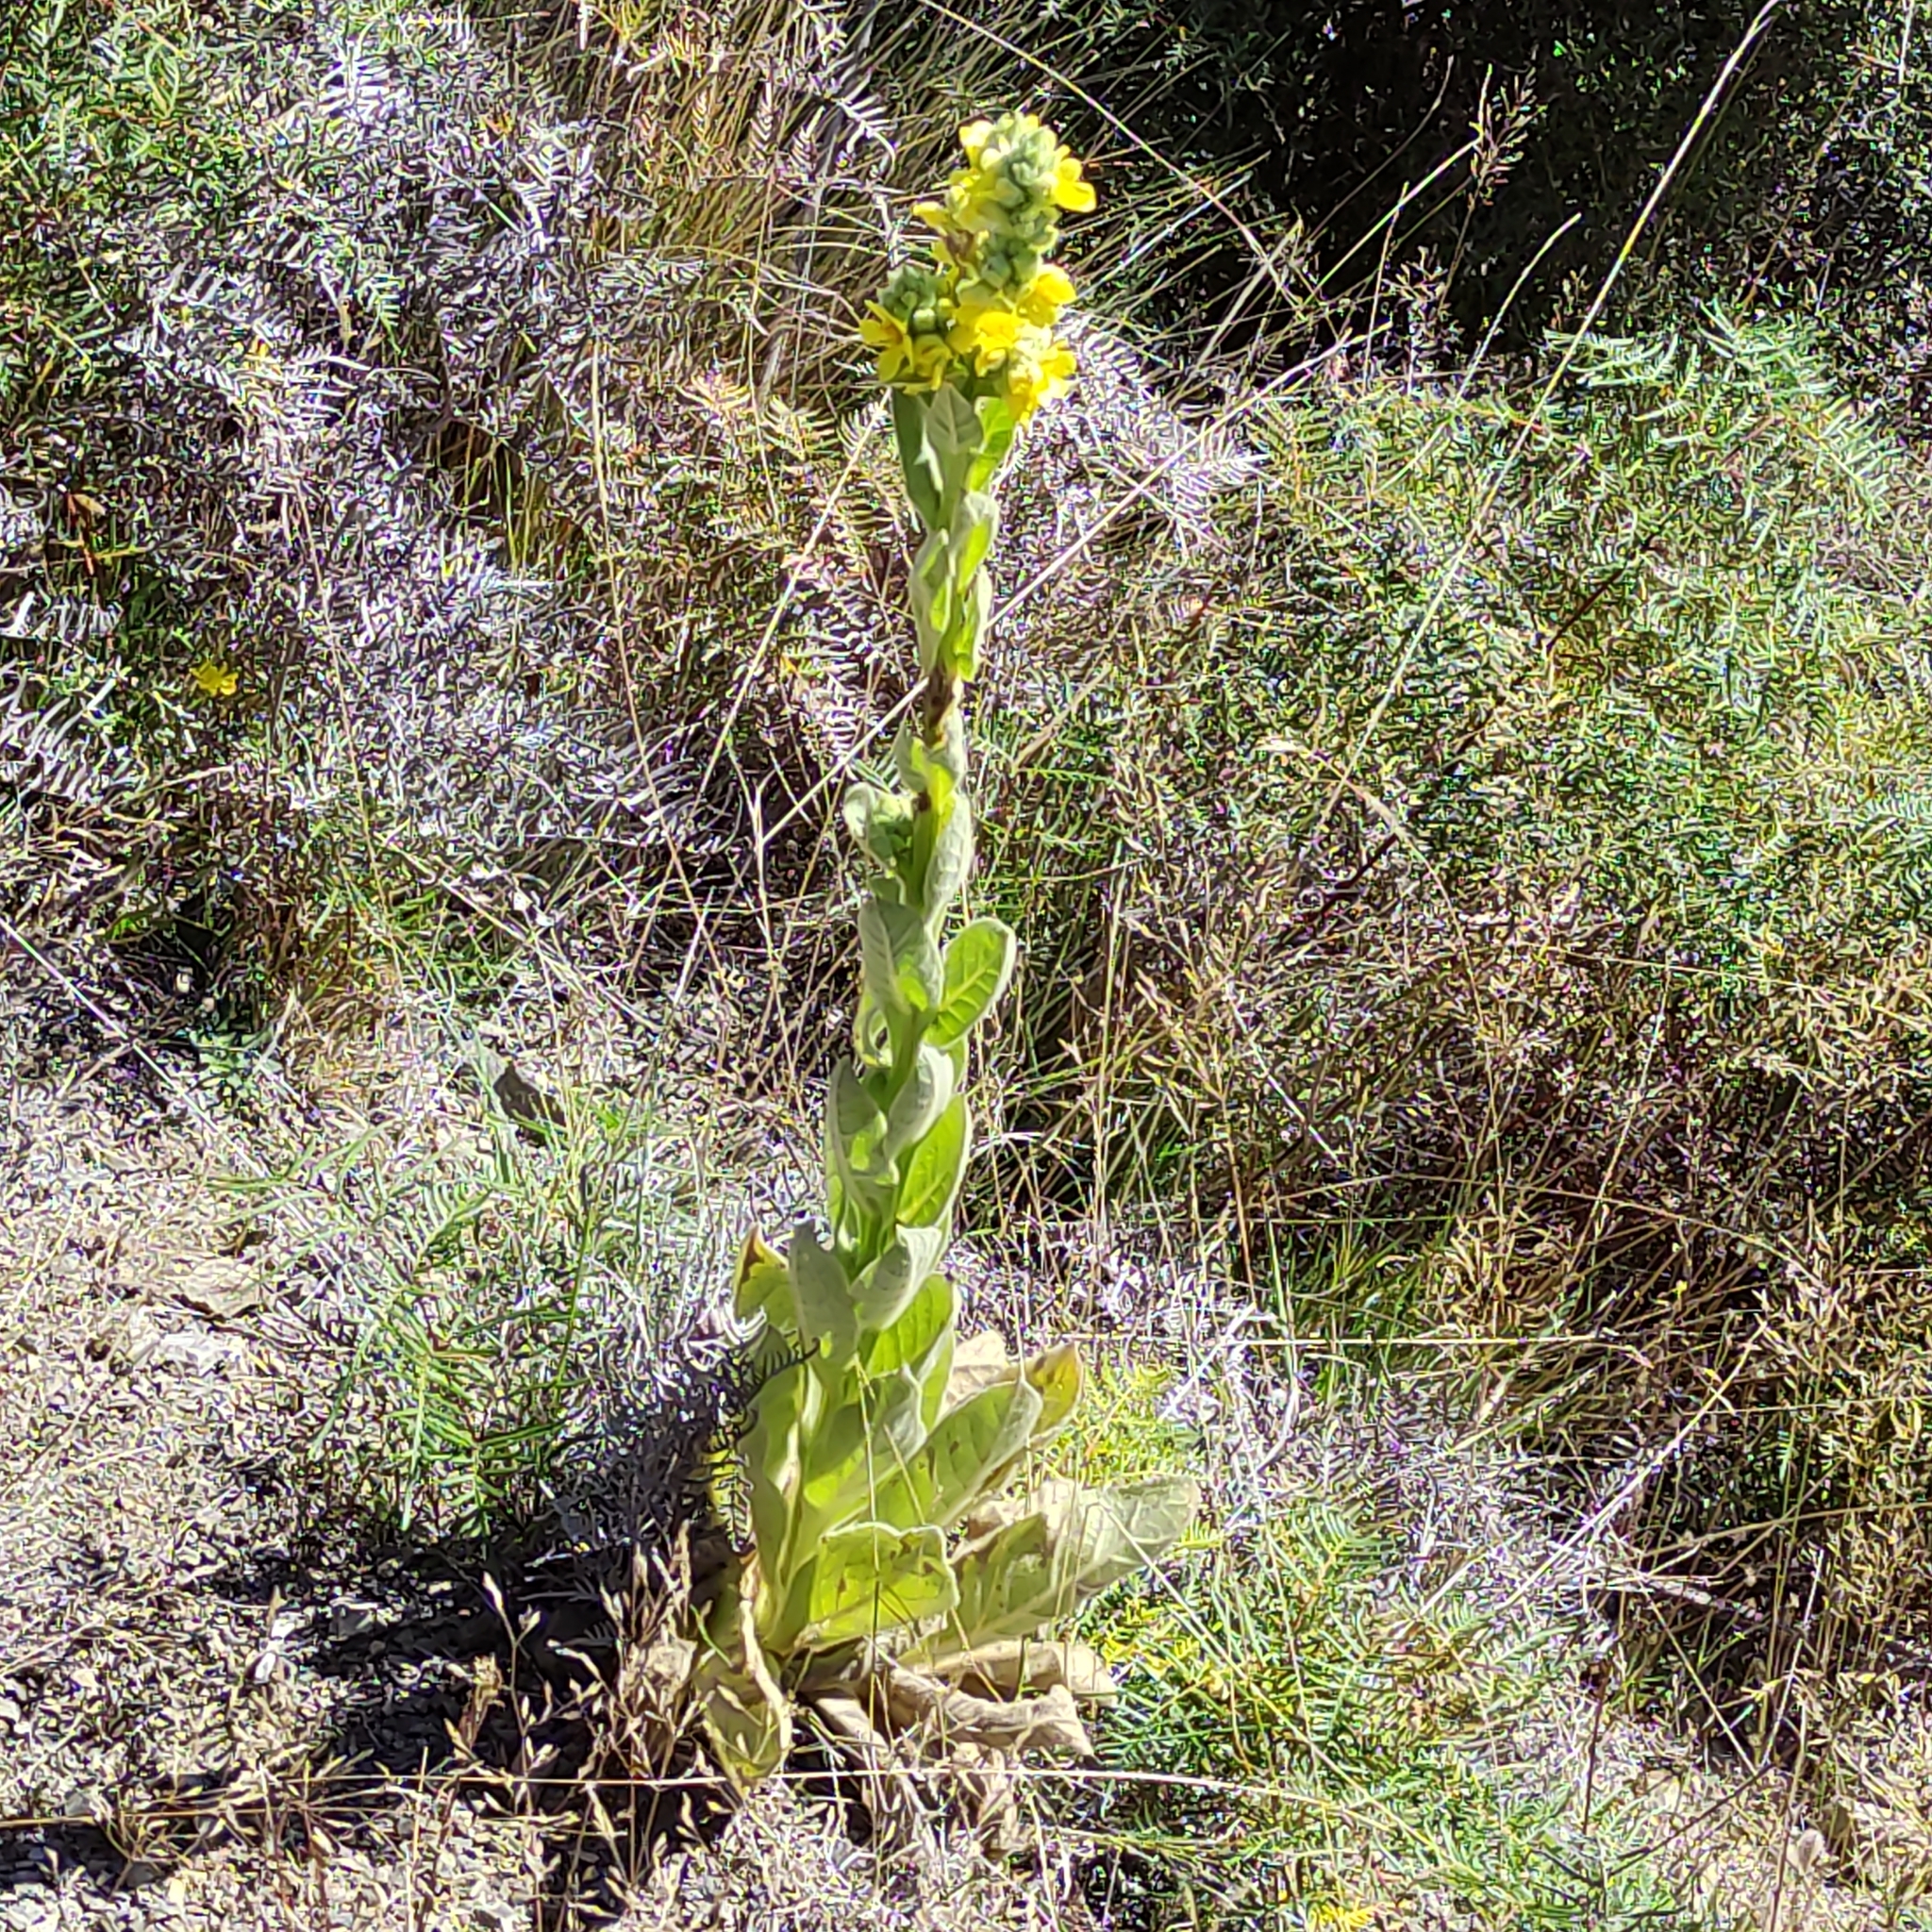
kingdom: Plantae
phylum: Tracheophyta
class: Magnoliopsida
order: Lamiales
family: Scrophulariaceae
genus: Verbascum
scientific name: Verbascum thapsus
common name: Common mullein
